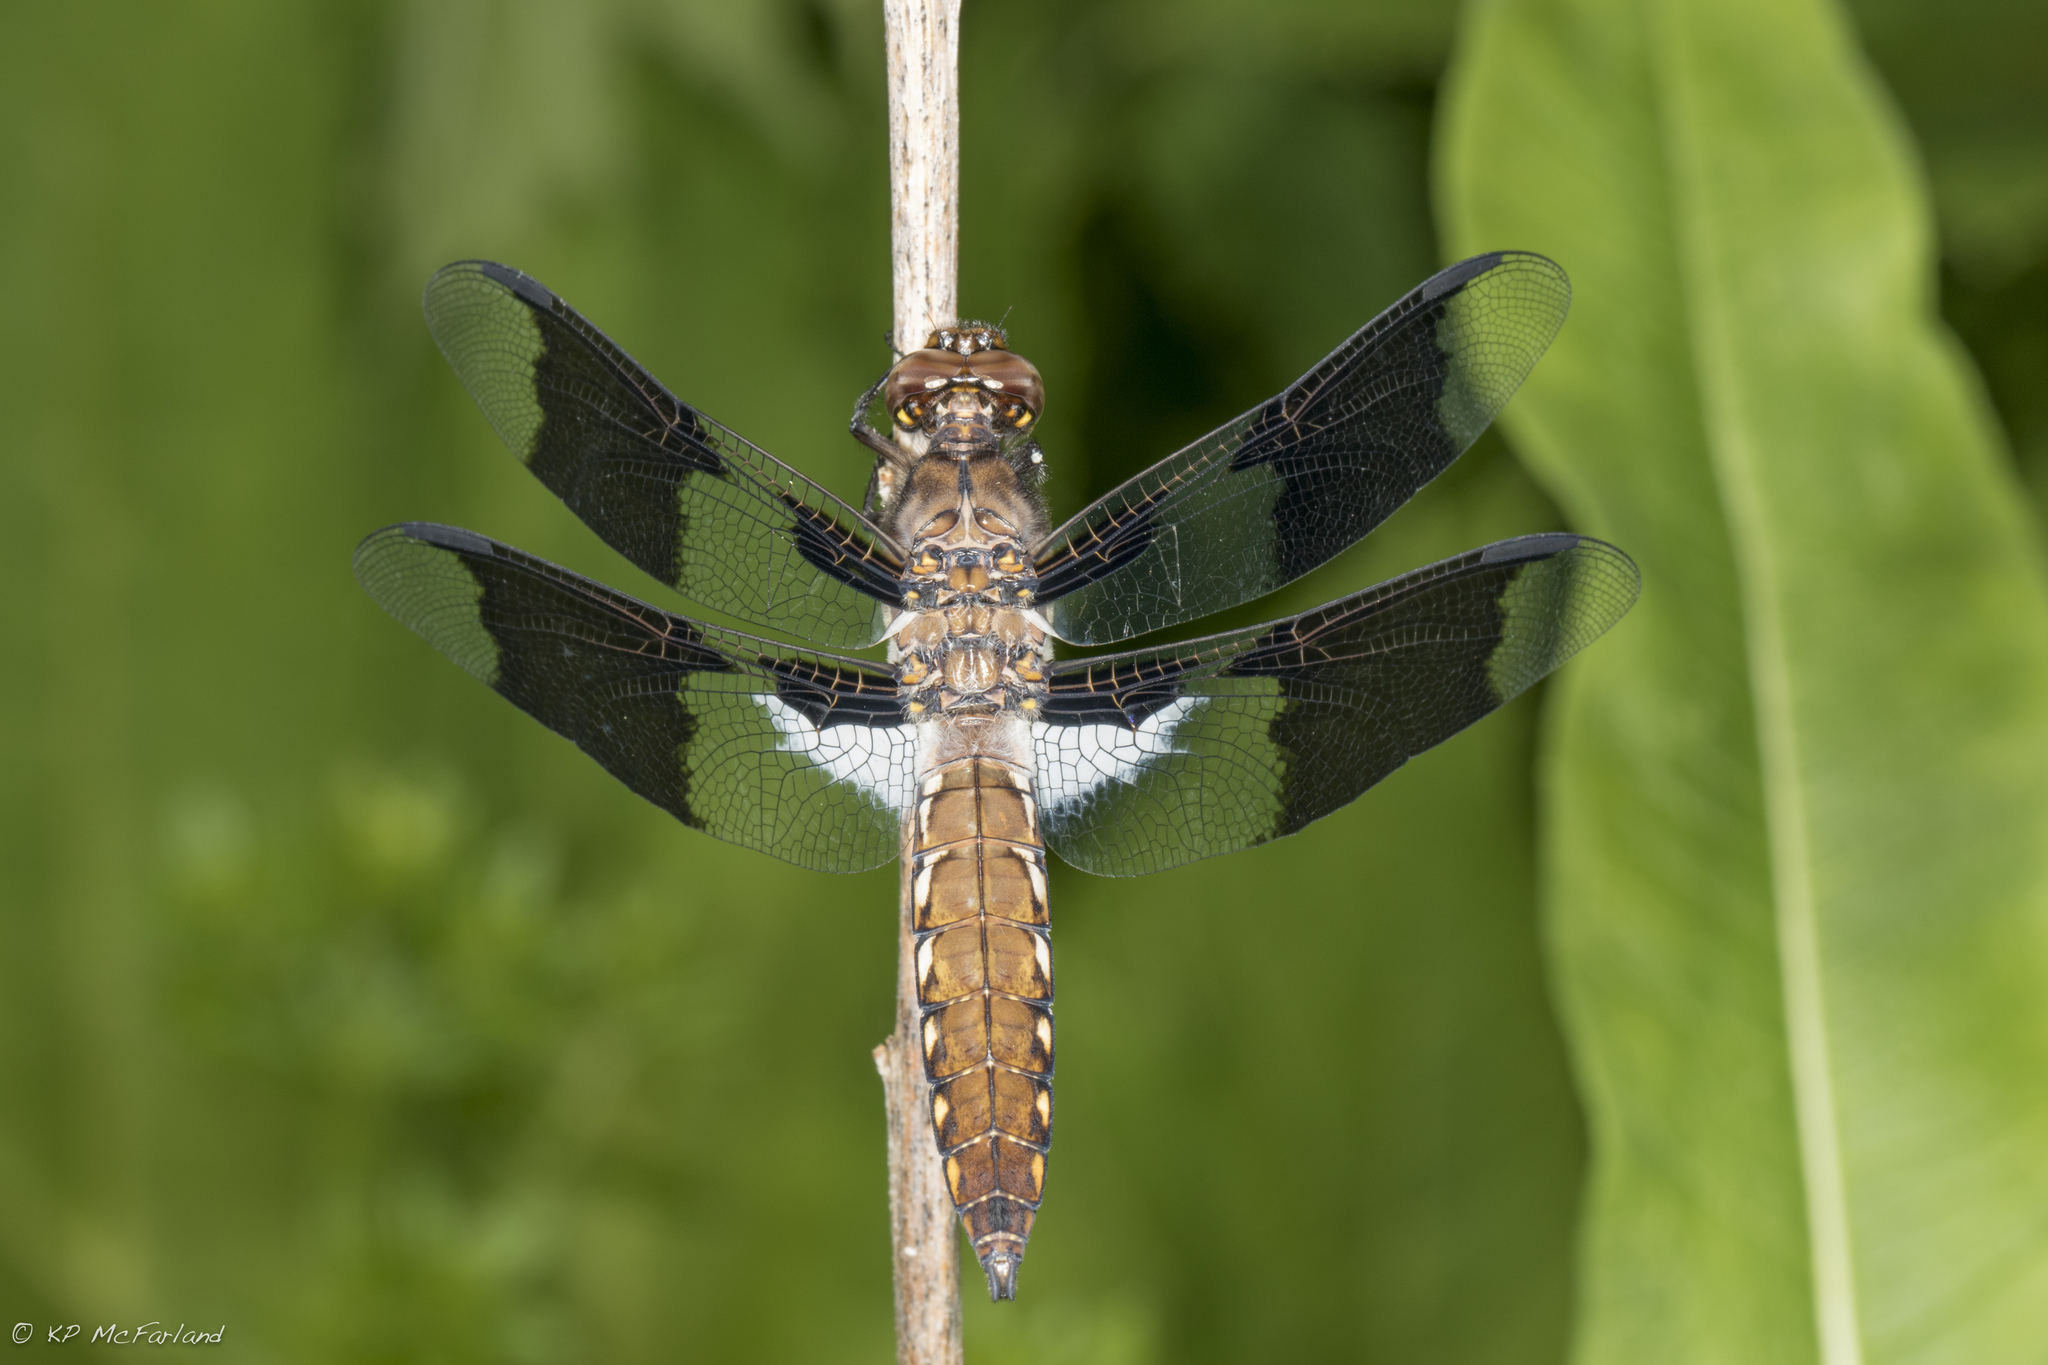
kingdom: Animalia
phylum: Arthropoda
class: Insecta
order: Odonata
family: Libellulidae
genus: Plathemis
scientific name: Plathemis lydia
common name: Common whitetail
